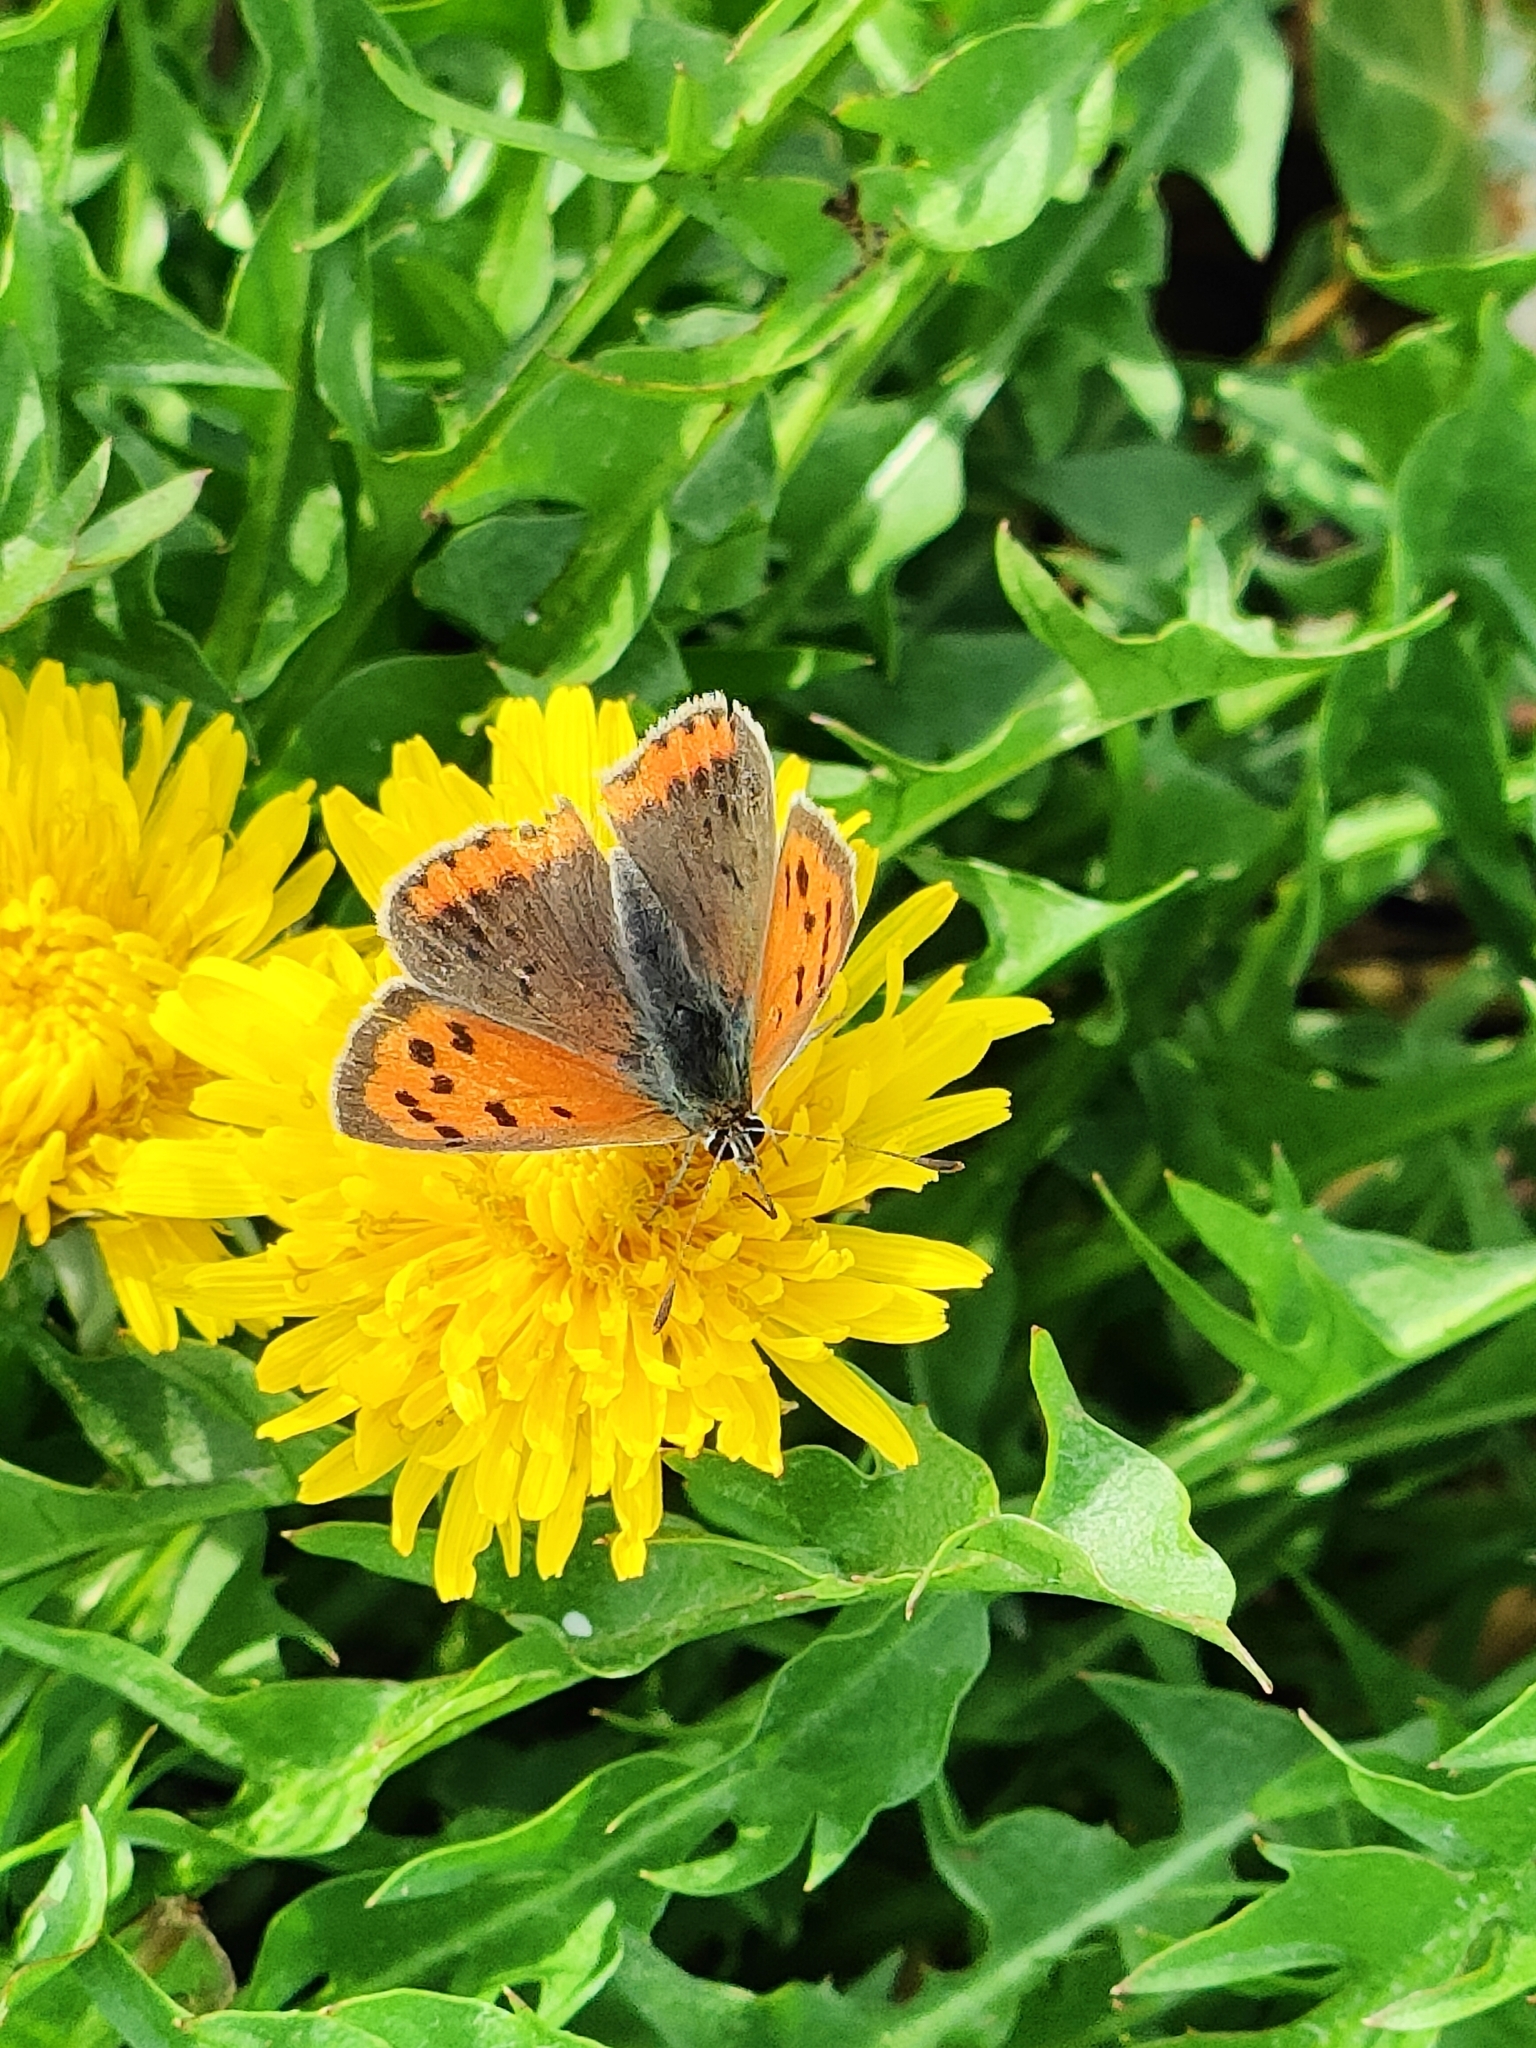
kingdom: Animalia
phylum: Arthropoda
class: Insecta
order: Lepidoptera
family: Lycaenidae
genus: Lycaena
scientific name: Lycaena phlaeas
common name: Small copper
